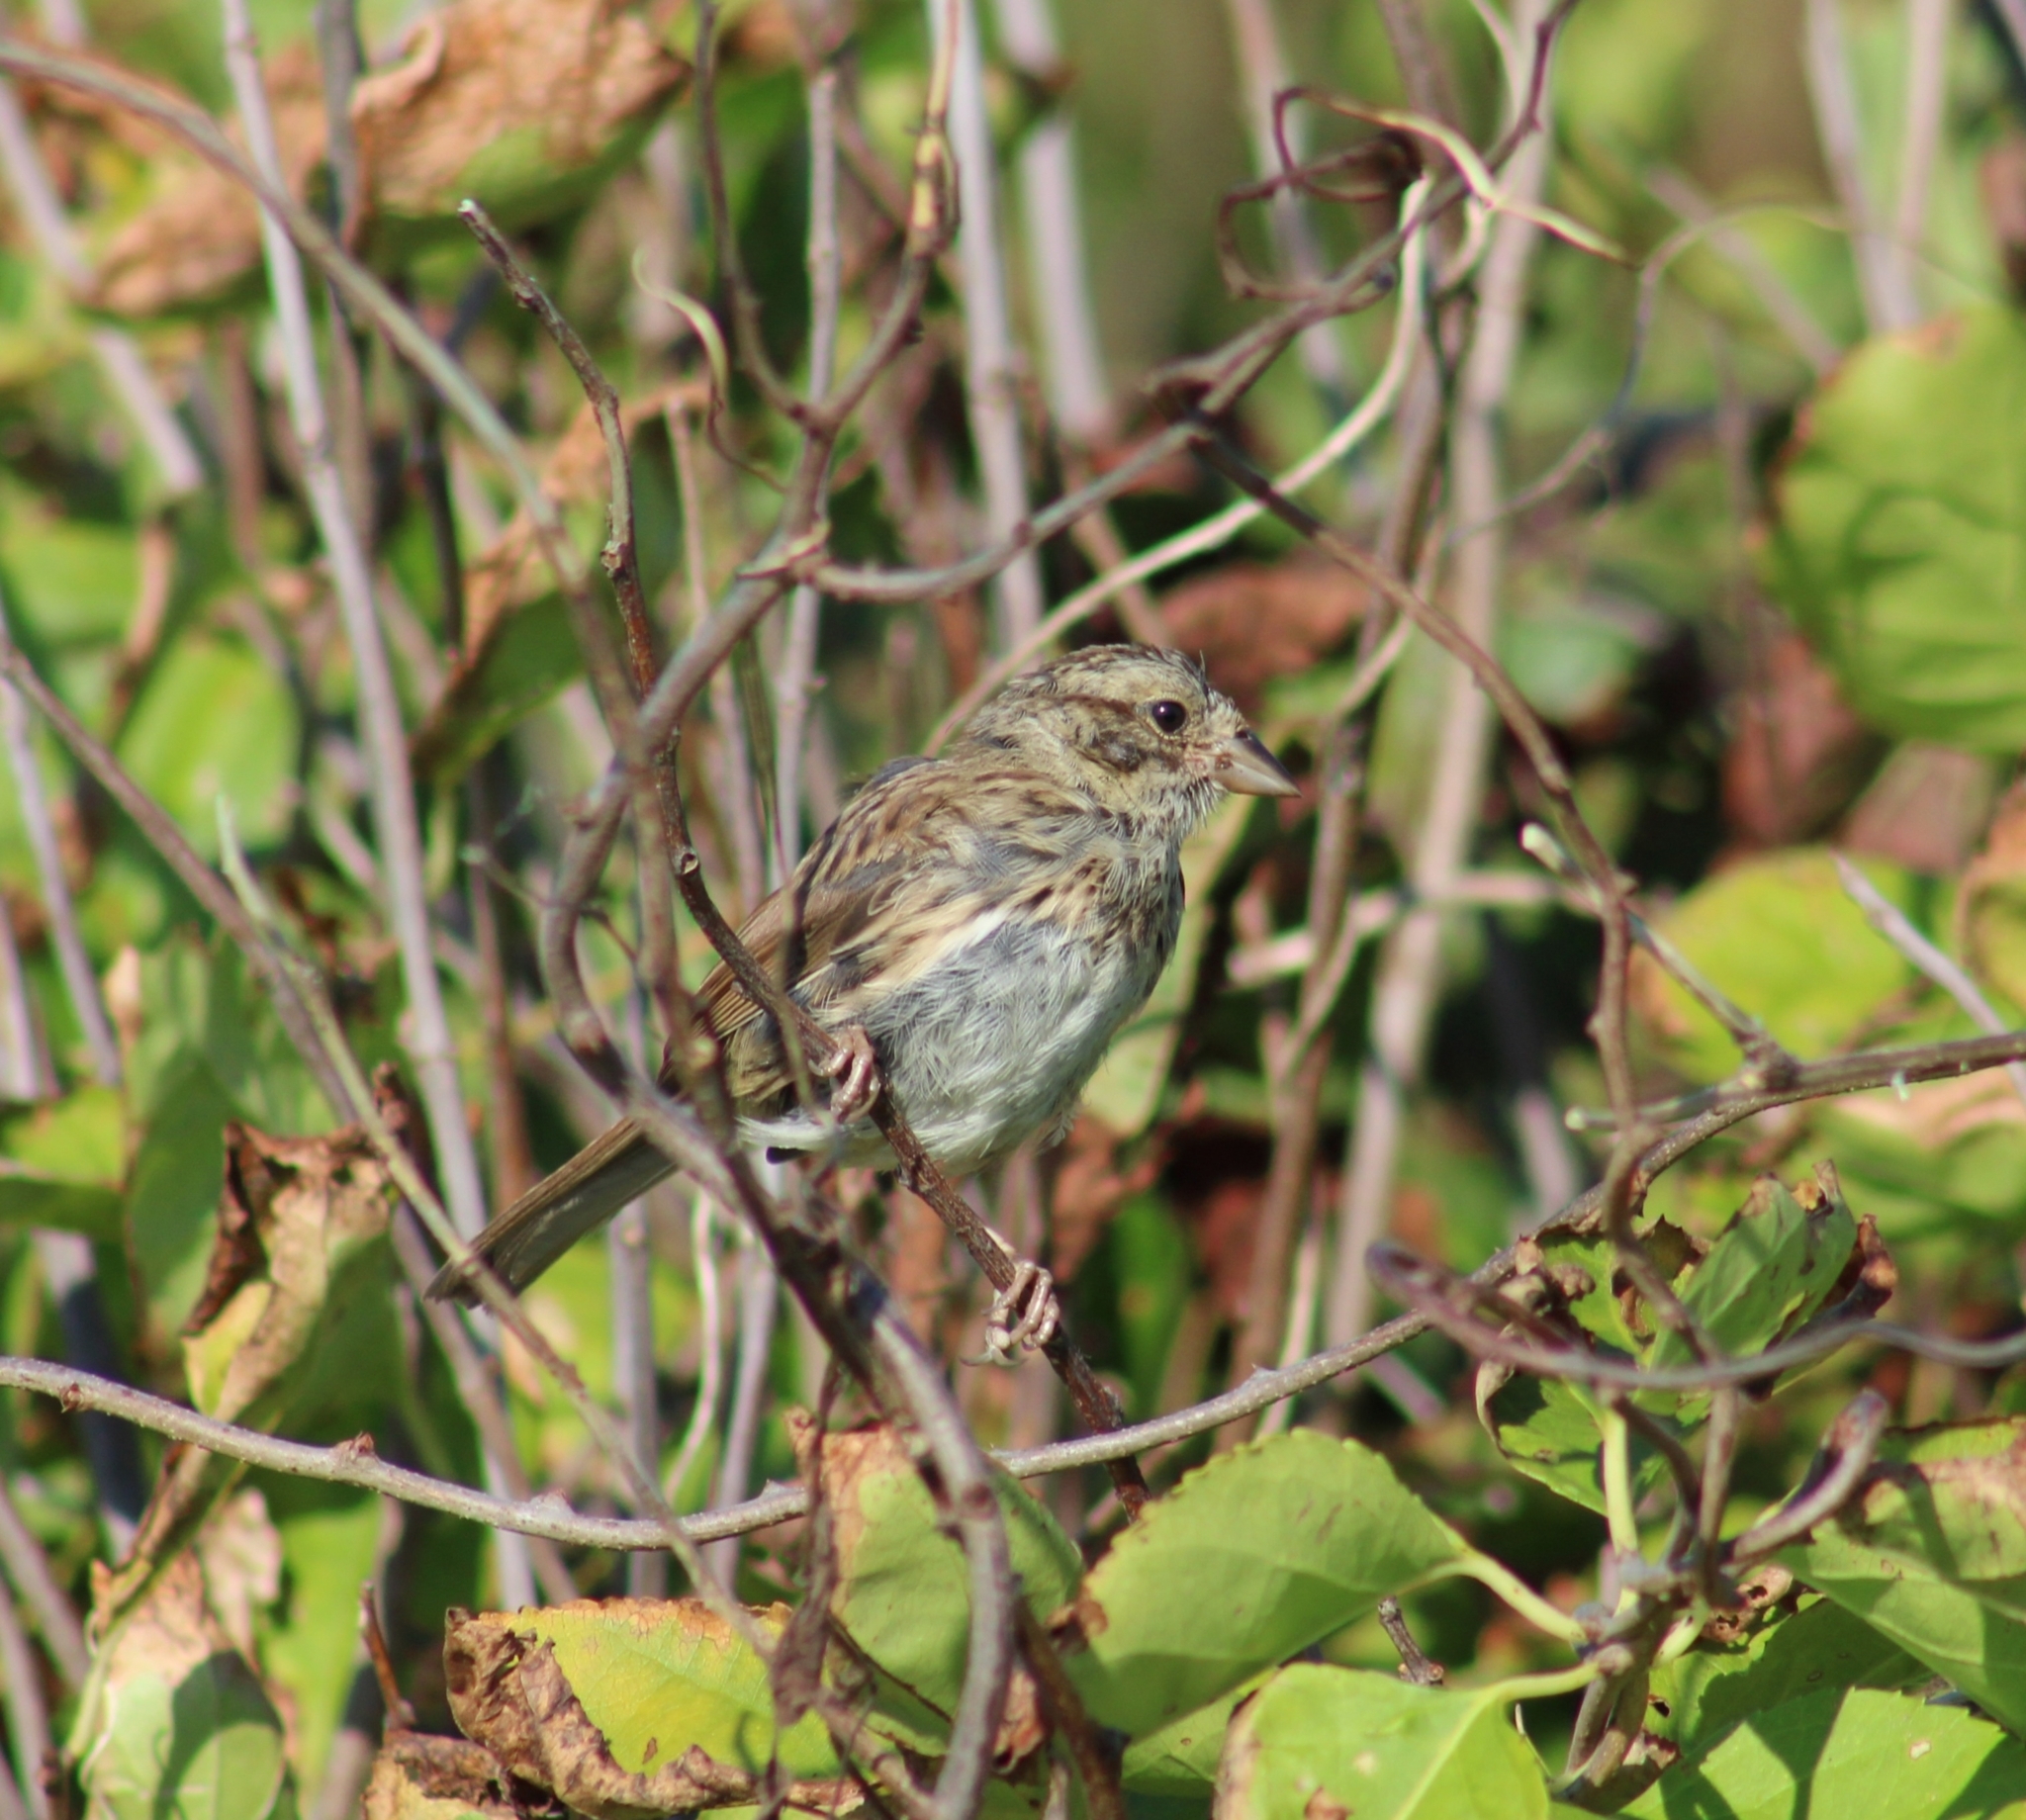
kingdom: Animalia
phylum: Chordata
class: Aves
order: Passeriformes
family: Passerellidae
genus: Melospiza
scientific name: Melospiza melodia
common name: Song sparrow
